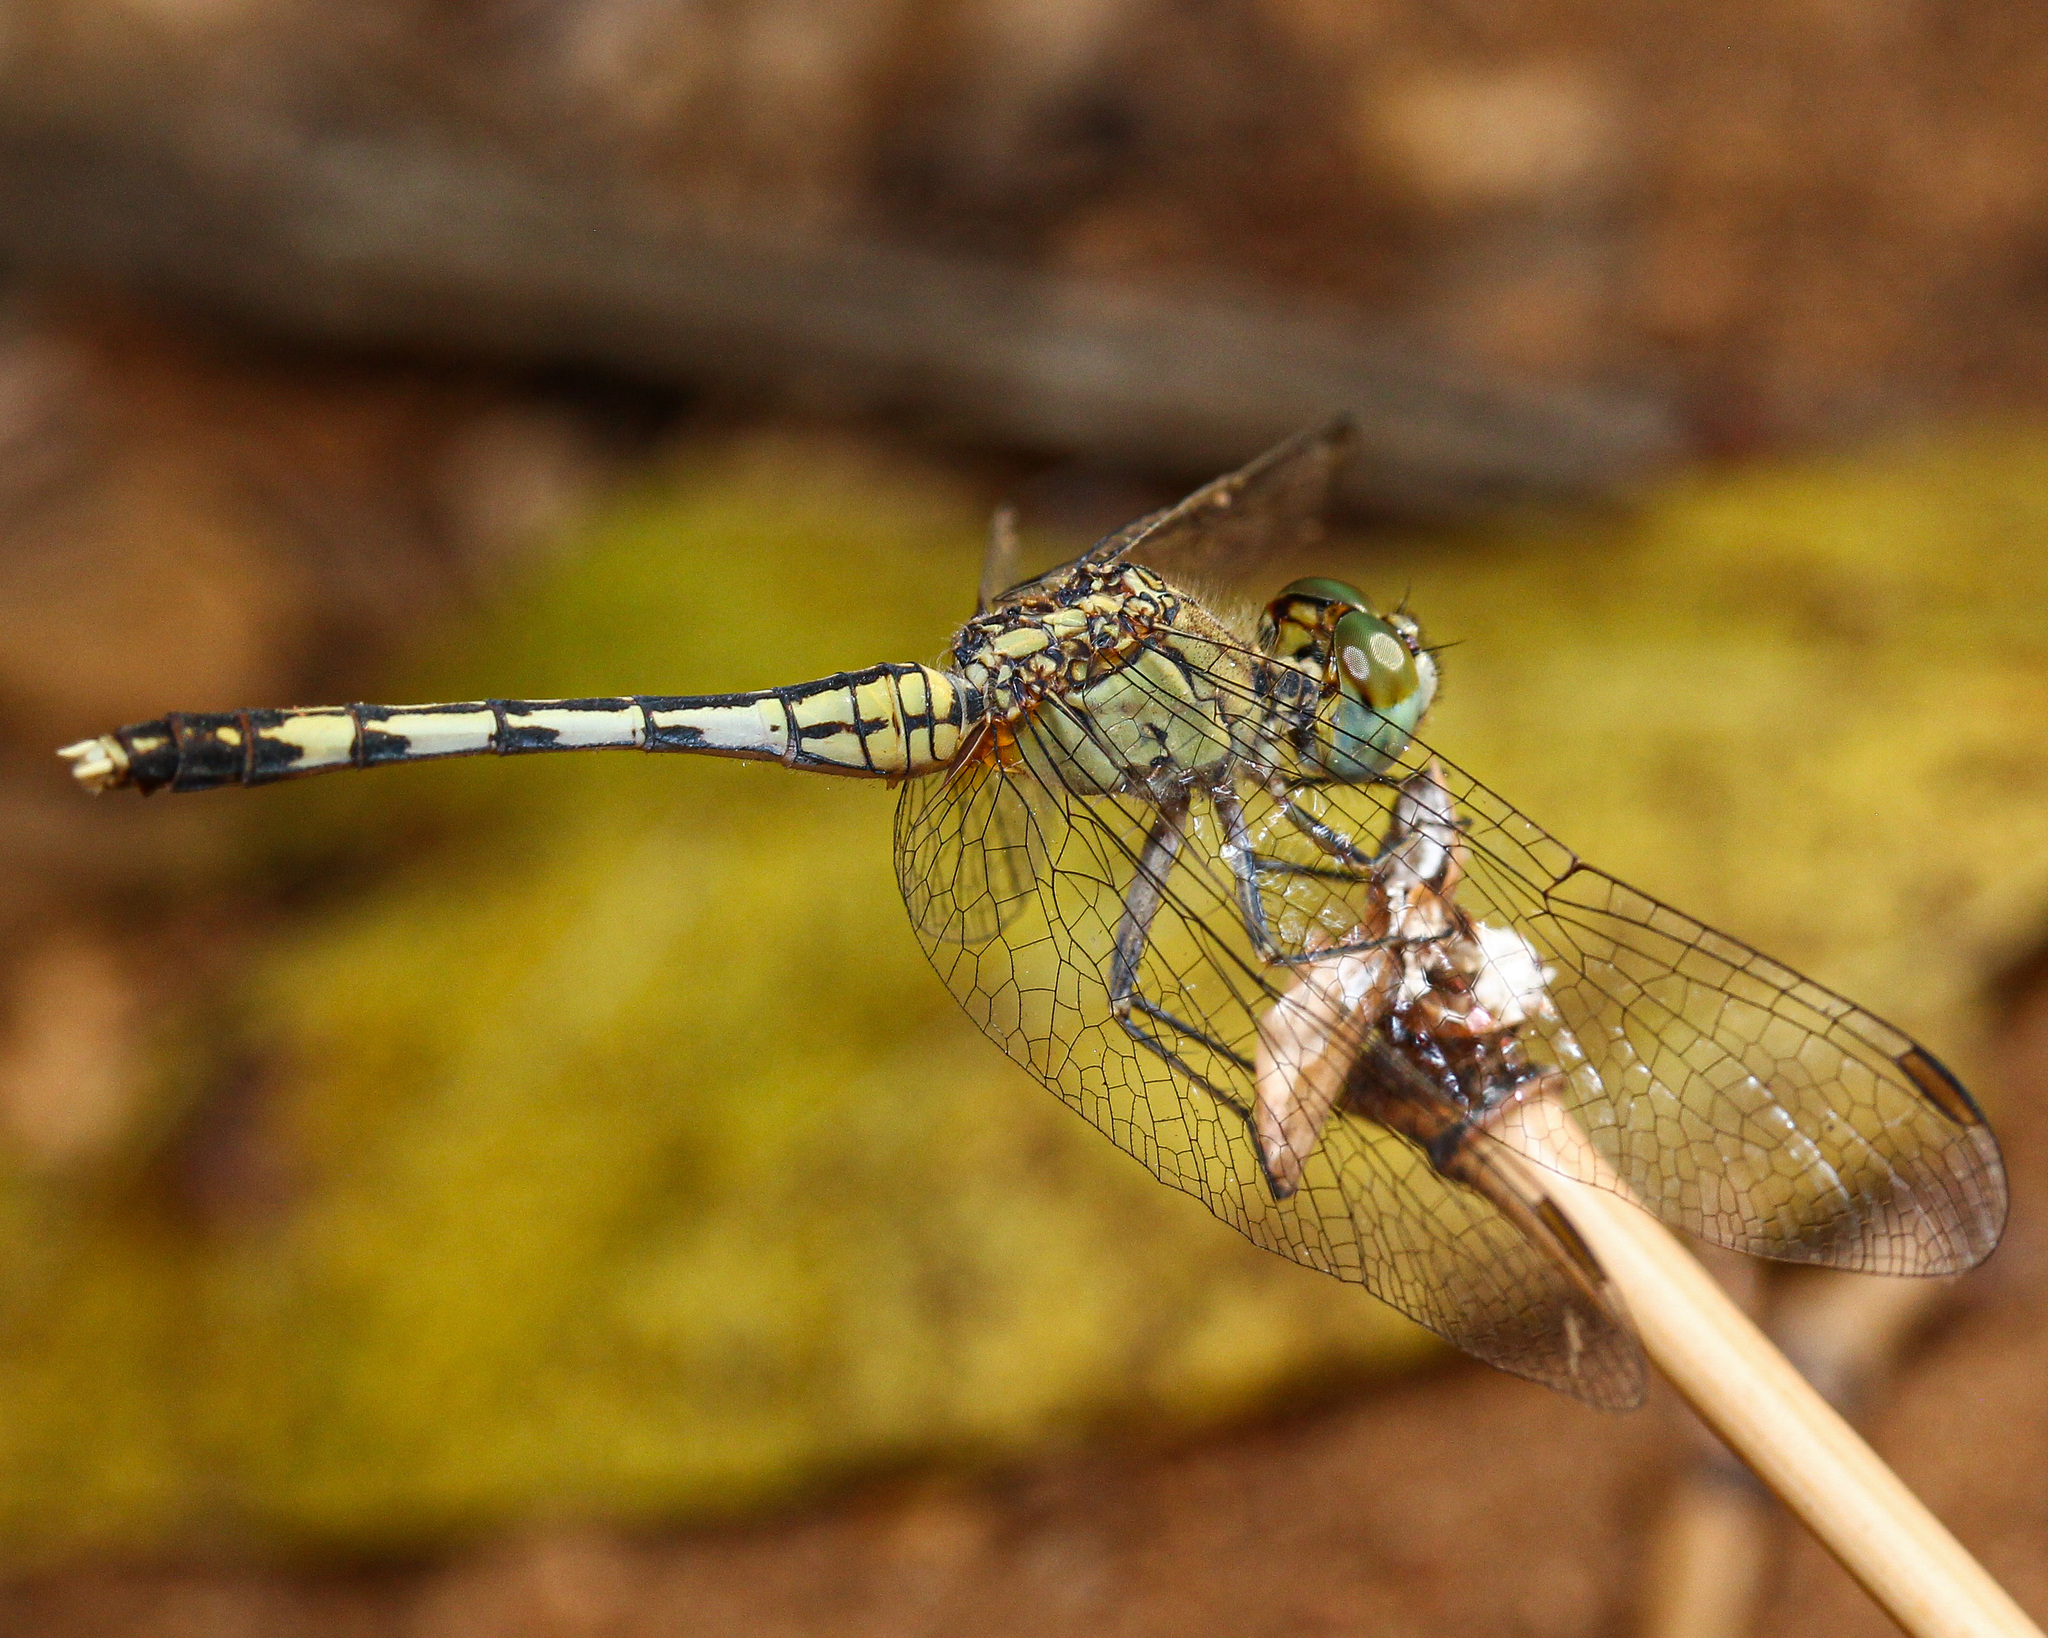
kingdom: Animalia
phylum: Arthropoda
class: Insecta
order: Odonata
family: Libellulidae
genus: Diplacodes
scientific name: Diplacodes trivialis
